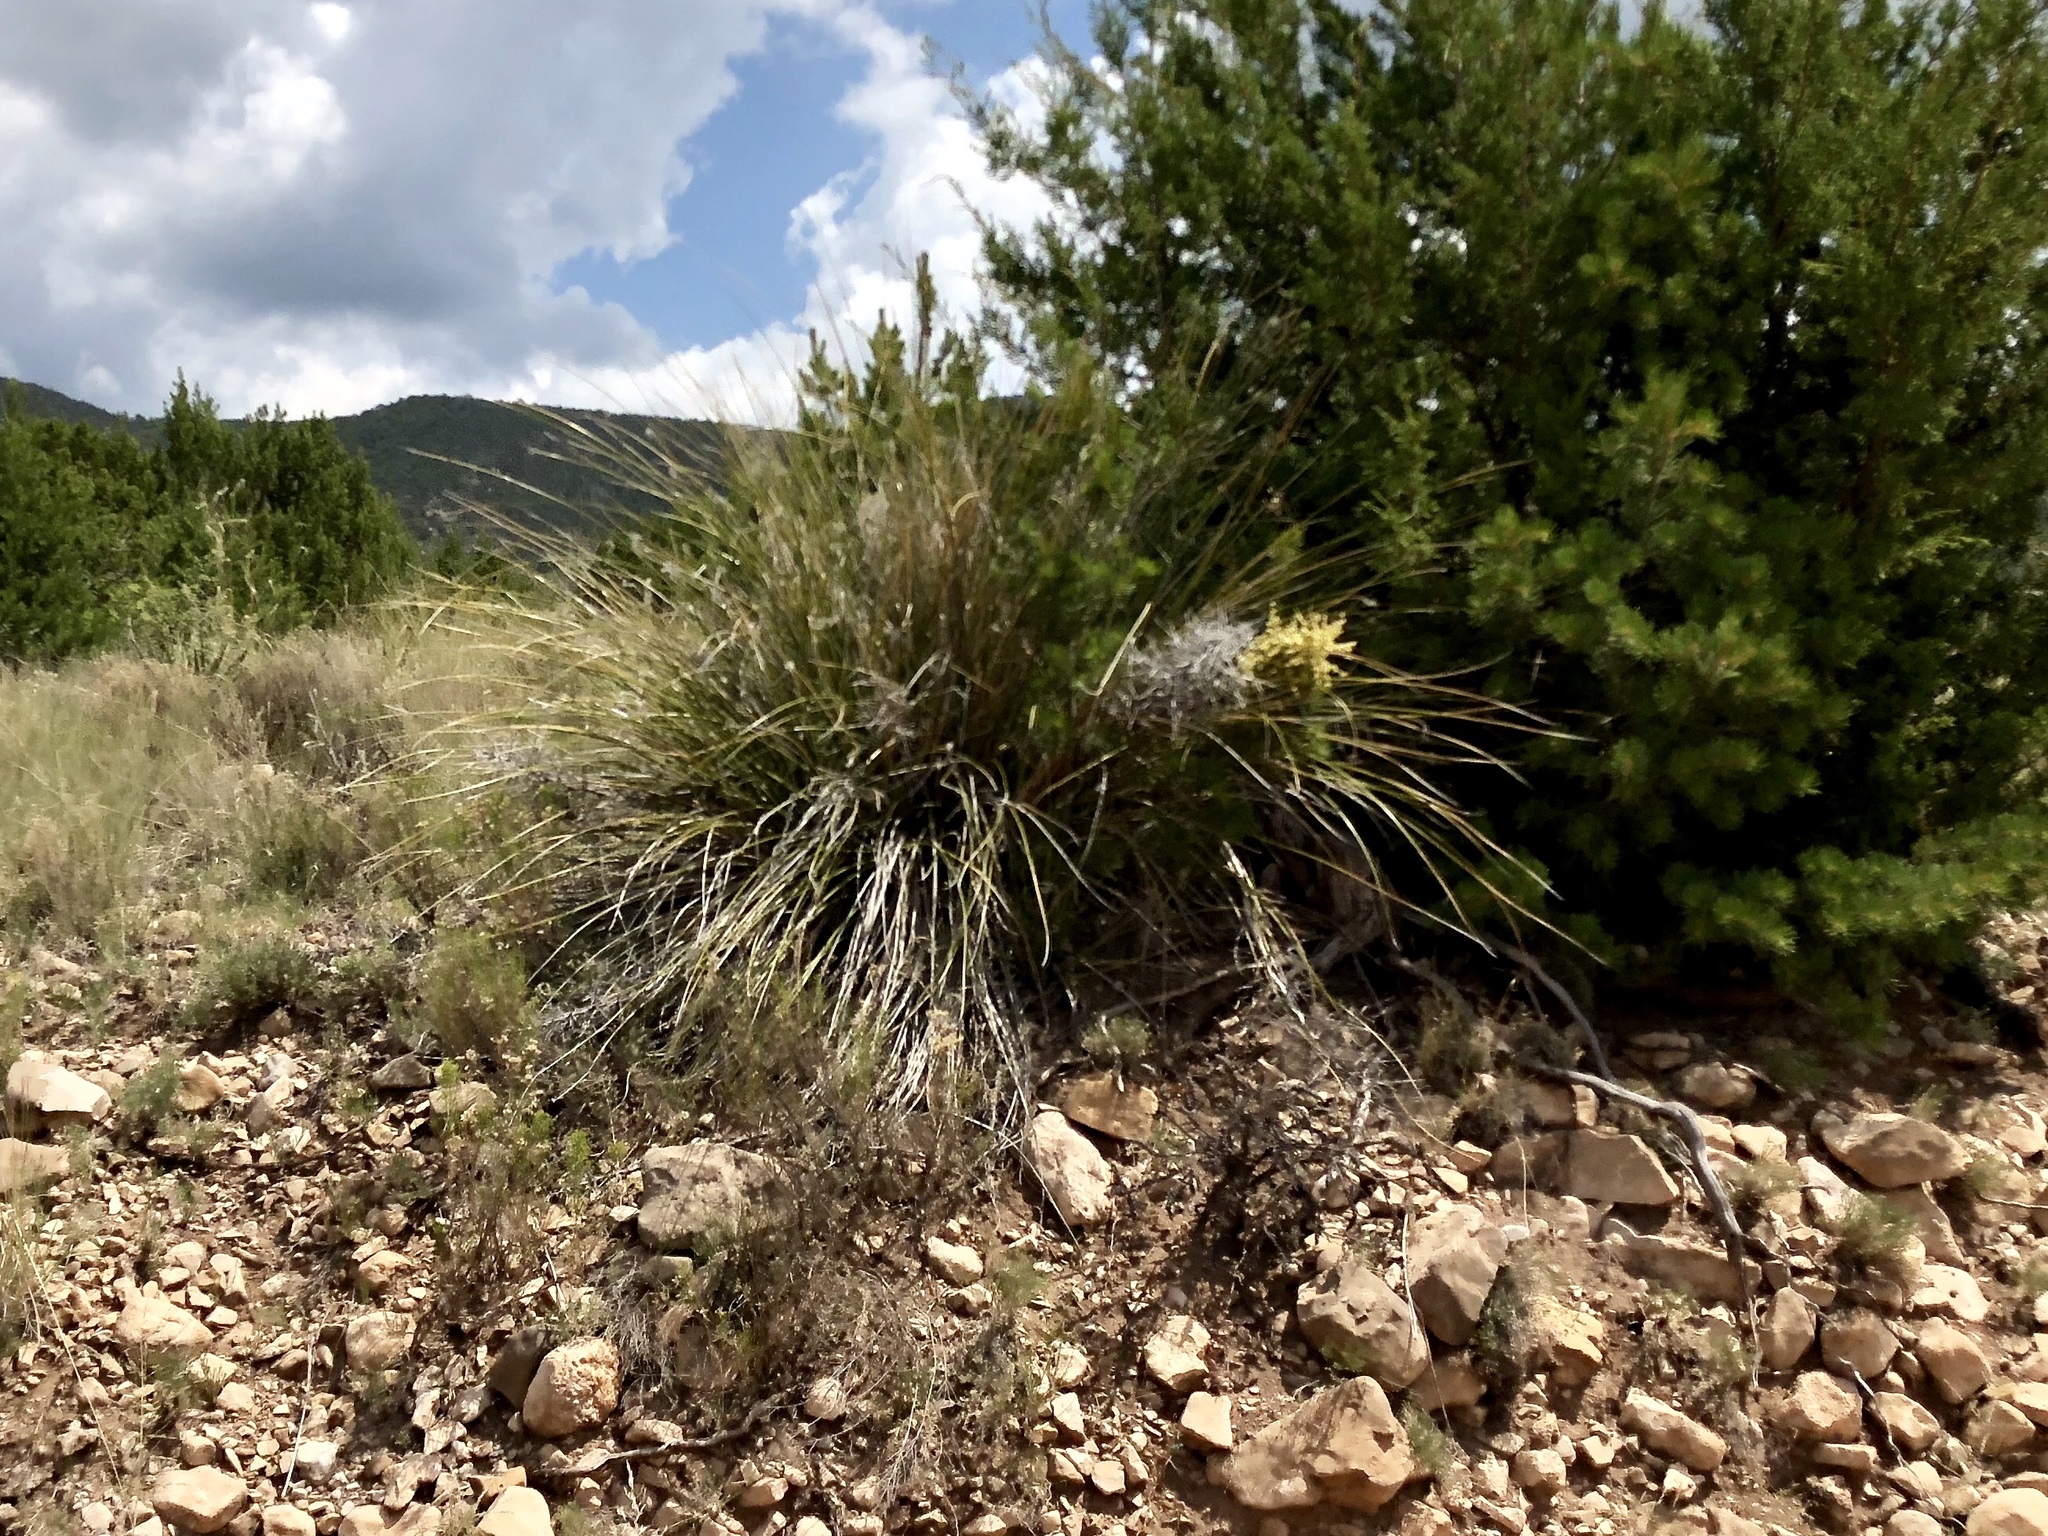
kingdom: Plantae
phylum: Tracheophyta
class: Liliopsida
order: Asparagales
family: Asparagaceae
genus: Nolina
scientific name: Nolina microcarpa
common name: Bear-grass
